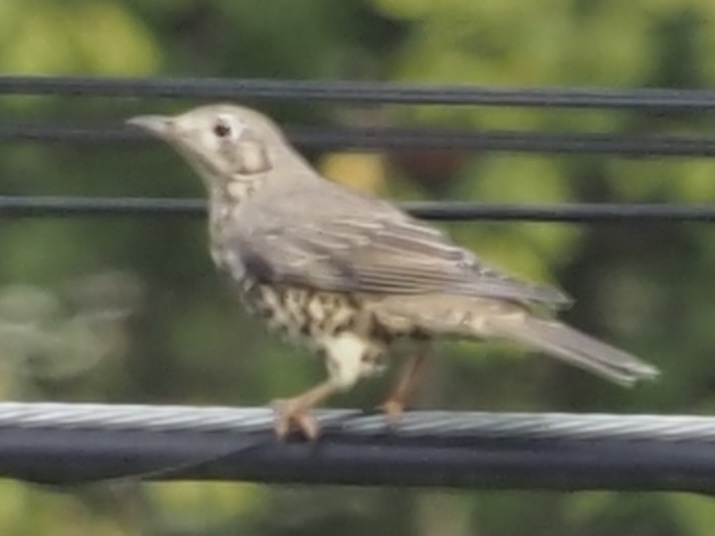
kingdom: Animalia
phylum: Chordata
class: Aves
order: Passeriformes
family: Turdidae
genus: Turdus
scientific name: Turdus viscivorus
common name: Mistle thrush
